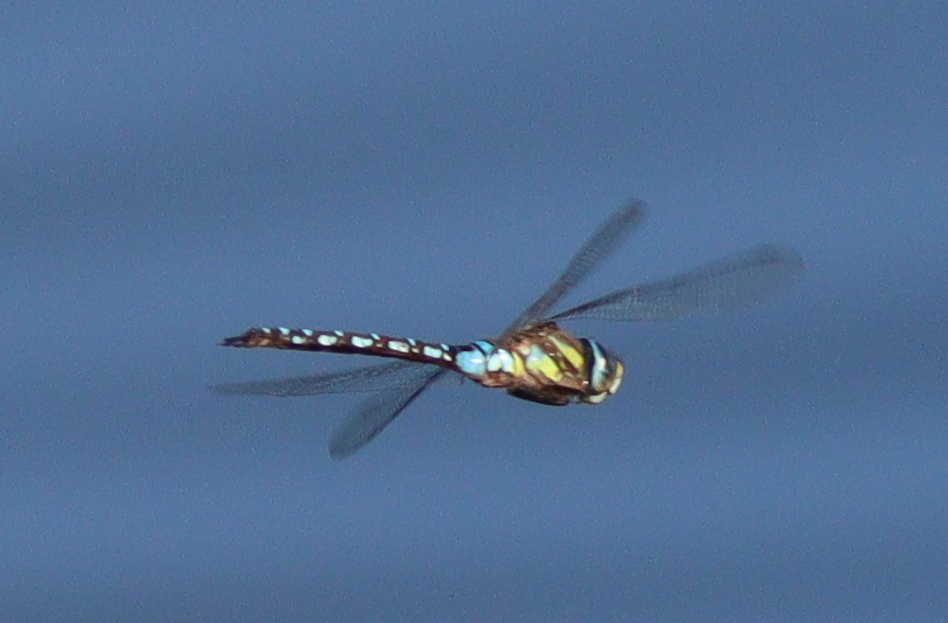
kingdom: Animalia
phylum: Arthropoda
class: Insecta
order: Odonata
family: Aeshnidae
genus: Aeshna
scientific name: Aeshna mixta
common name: Migrant hawker
